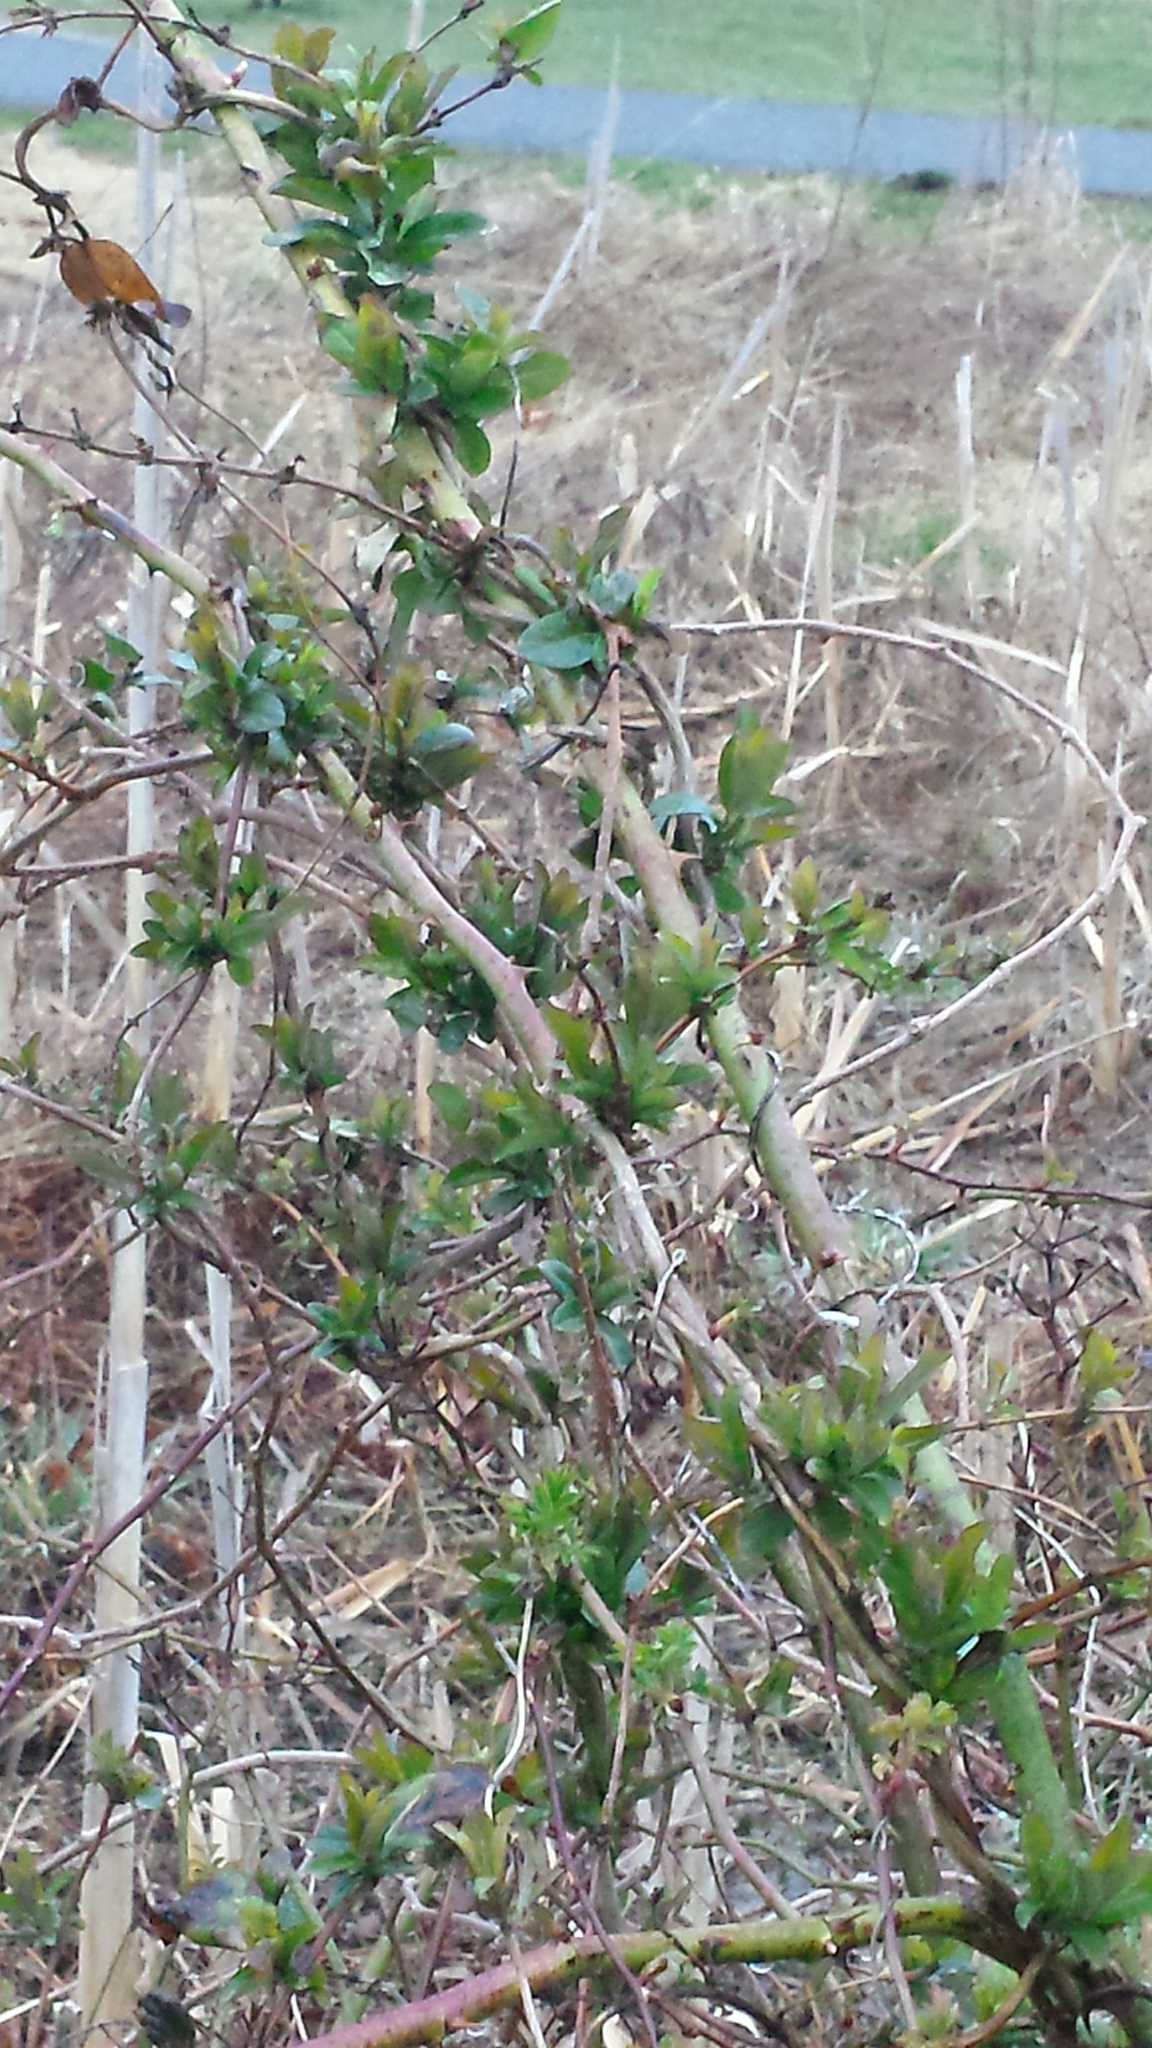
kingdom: Plantae
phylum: Tracheophyta
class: Magnoliopsida
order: Dipsacales
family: Caprifoliaceae
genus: Lonicera
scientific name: Lonicera japonica
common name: Japanese honeysuckle
